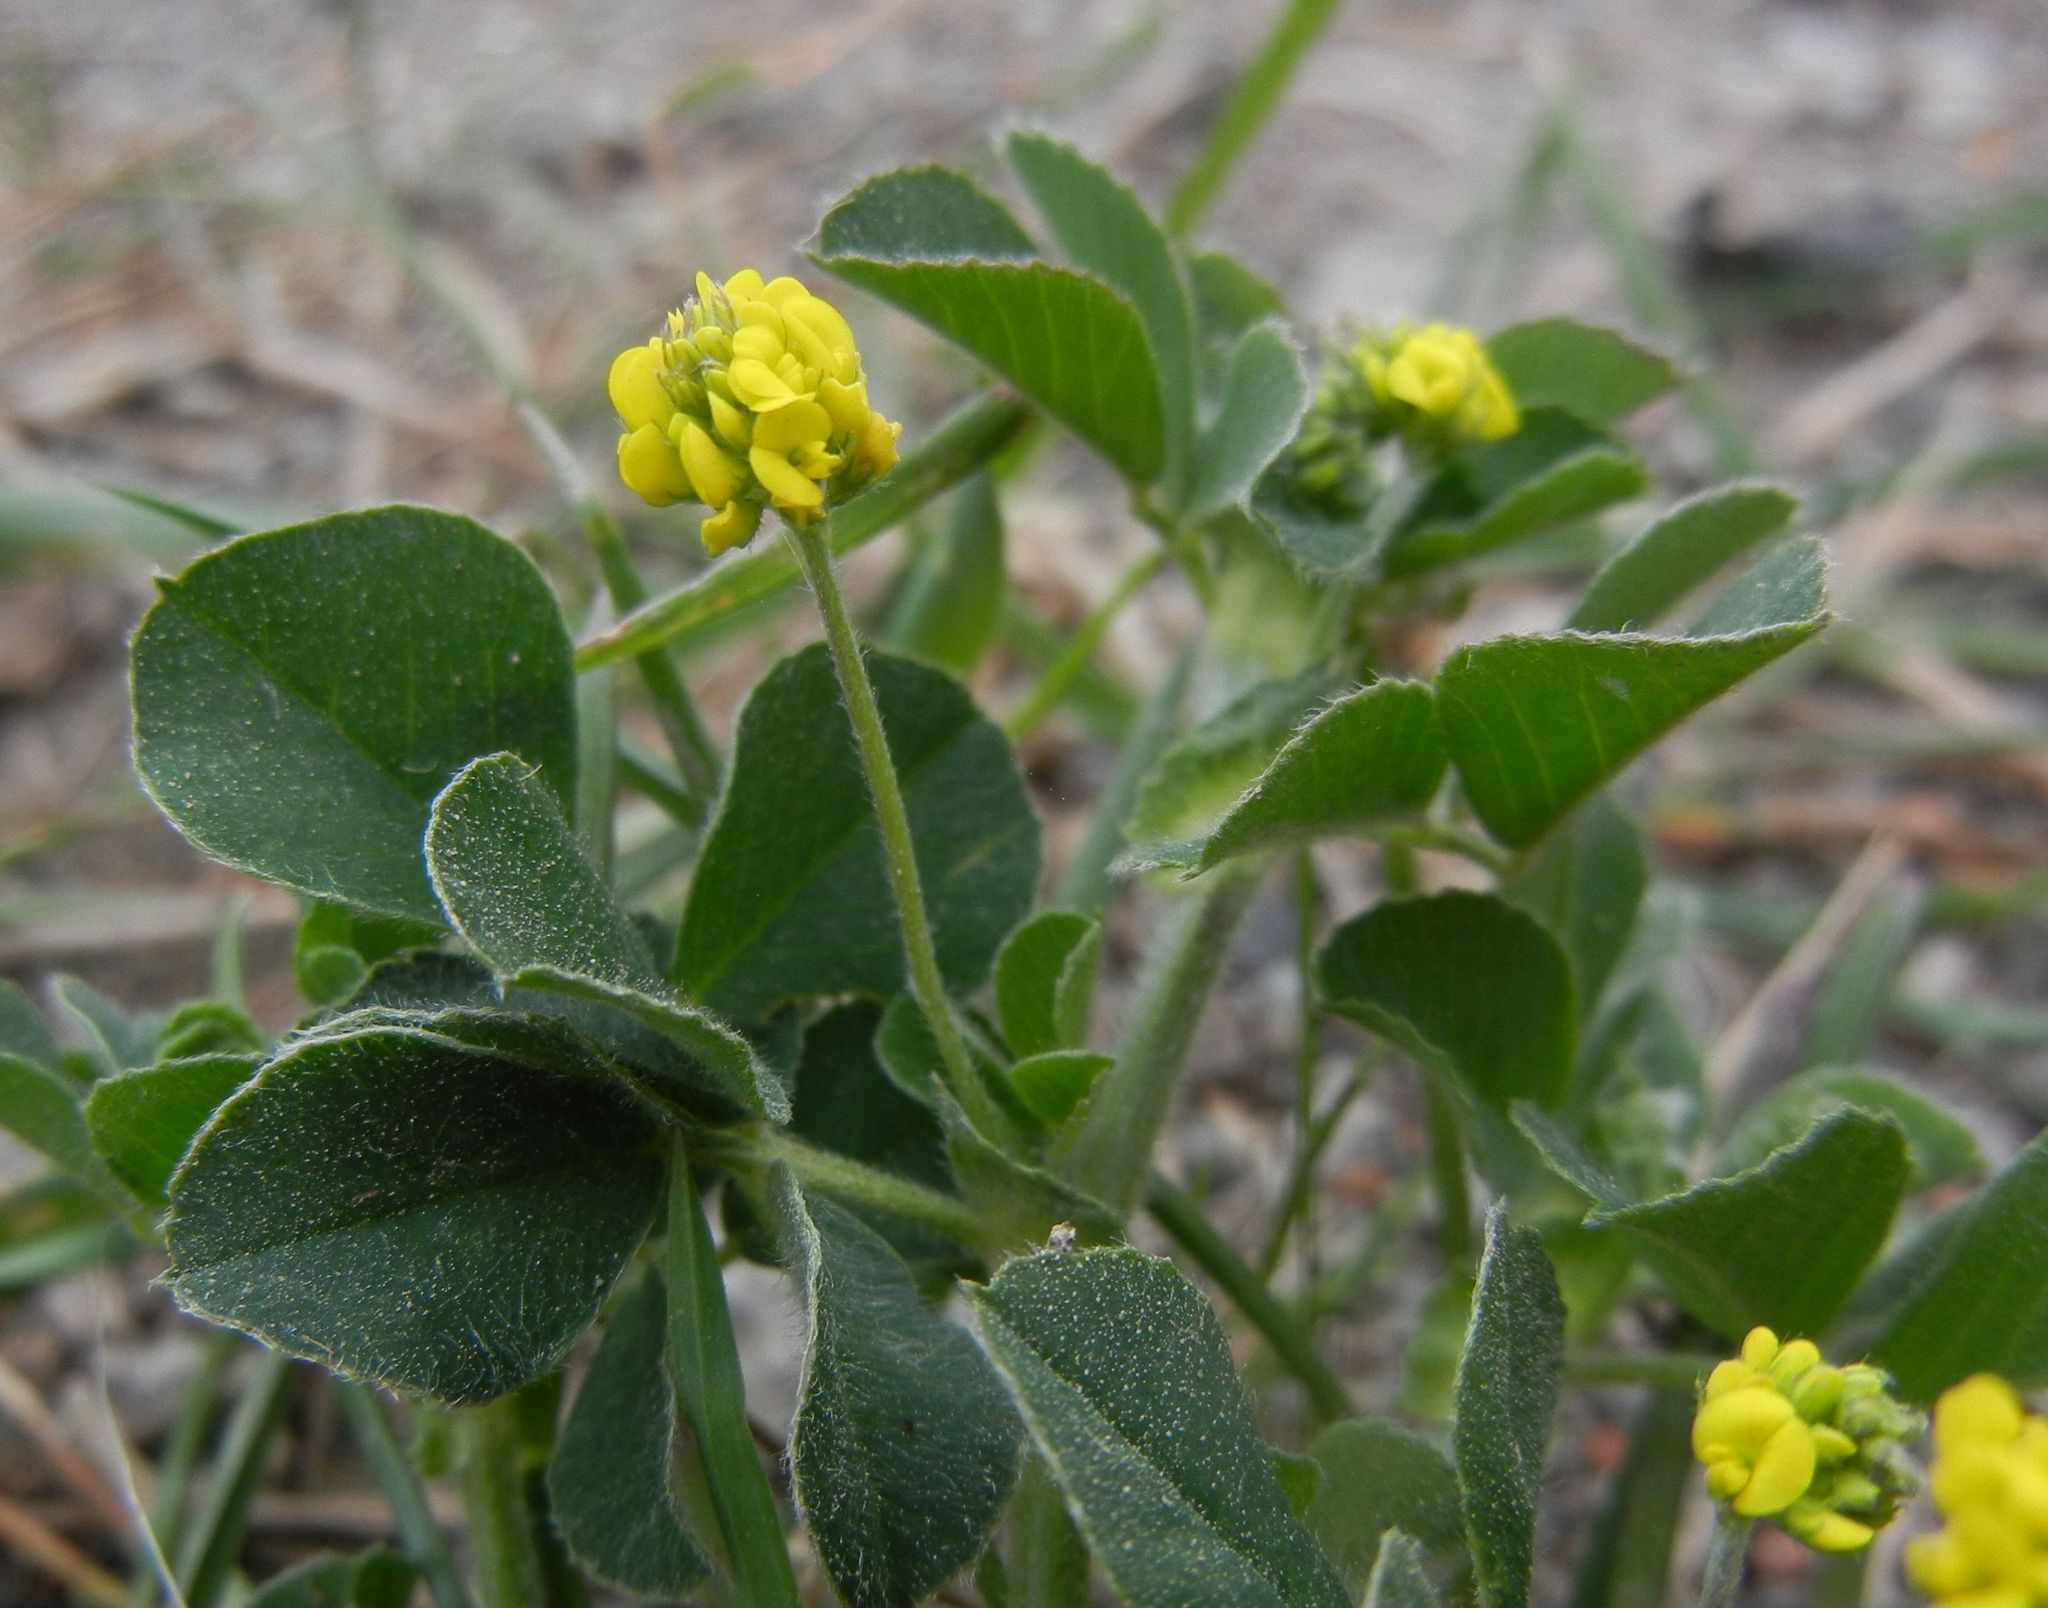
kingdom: Plantae
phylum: Tracheophyta
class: Magnoliopsida
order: Fabales
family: Fabaceae
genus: Medicago
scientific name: Medicago lupulina
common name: Black medick
